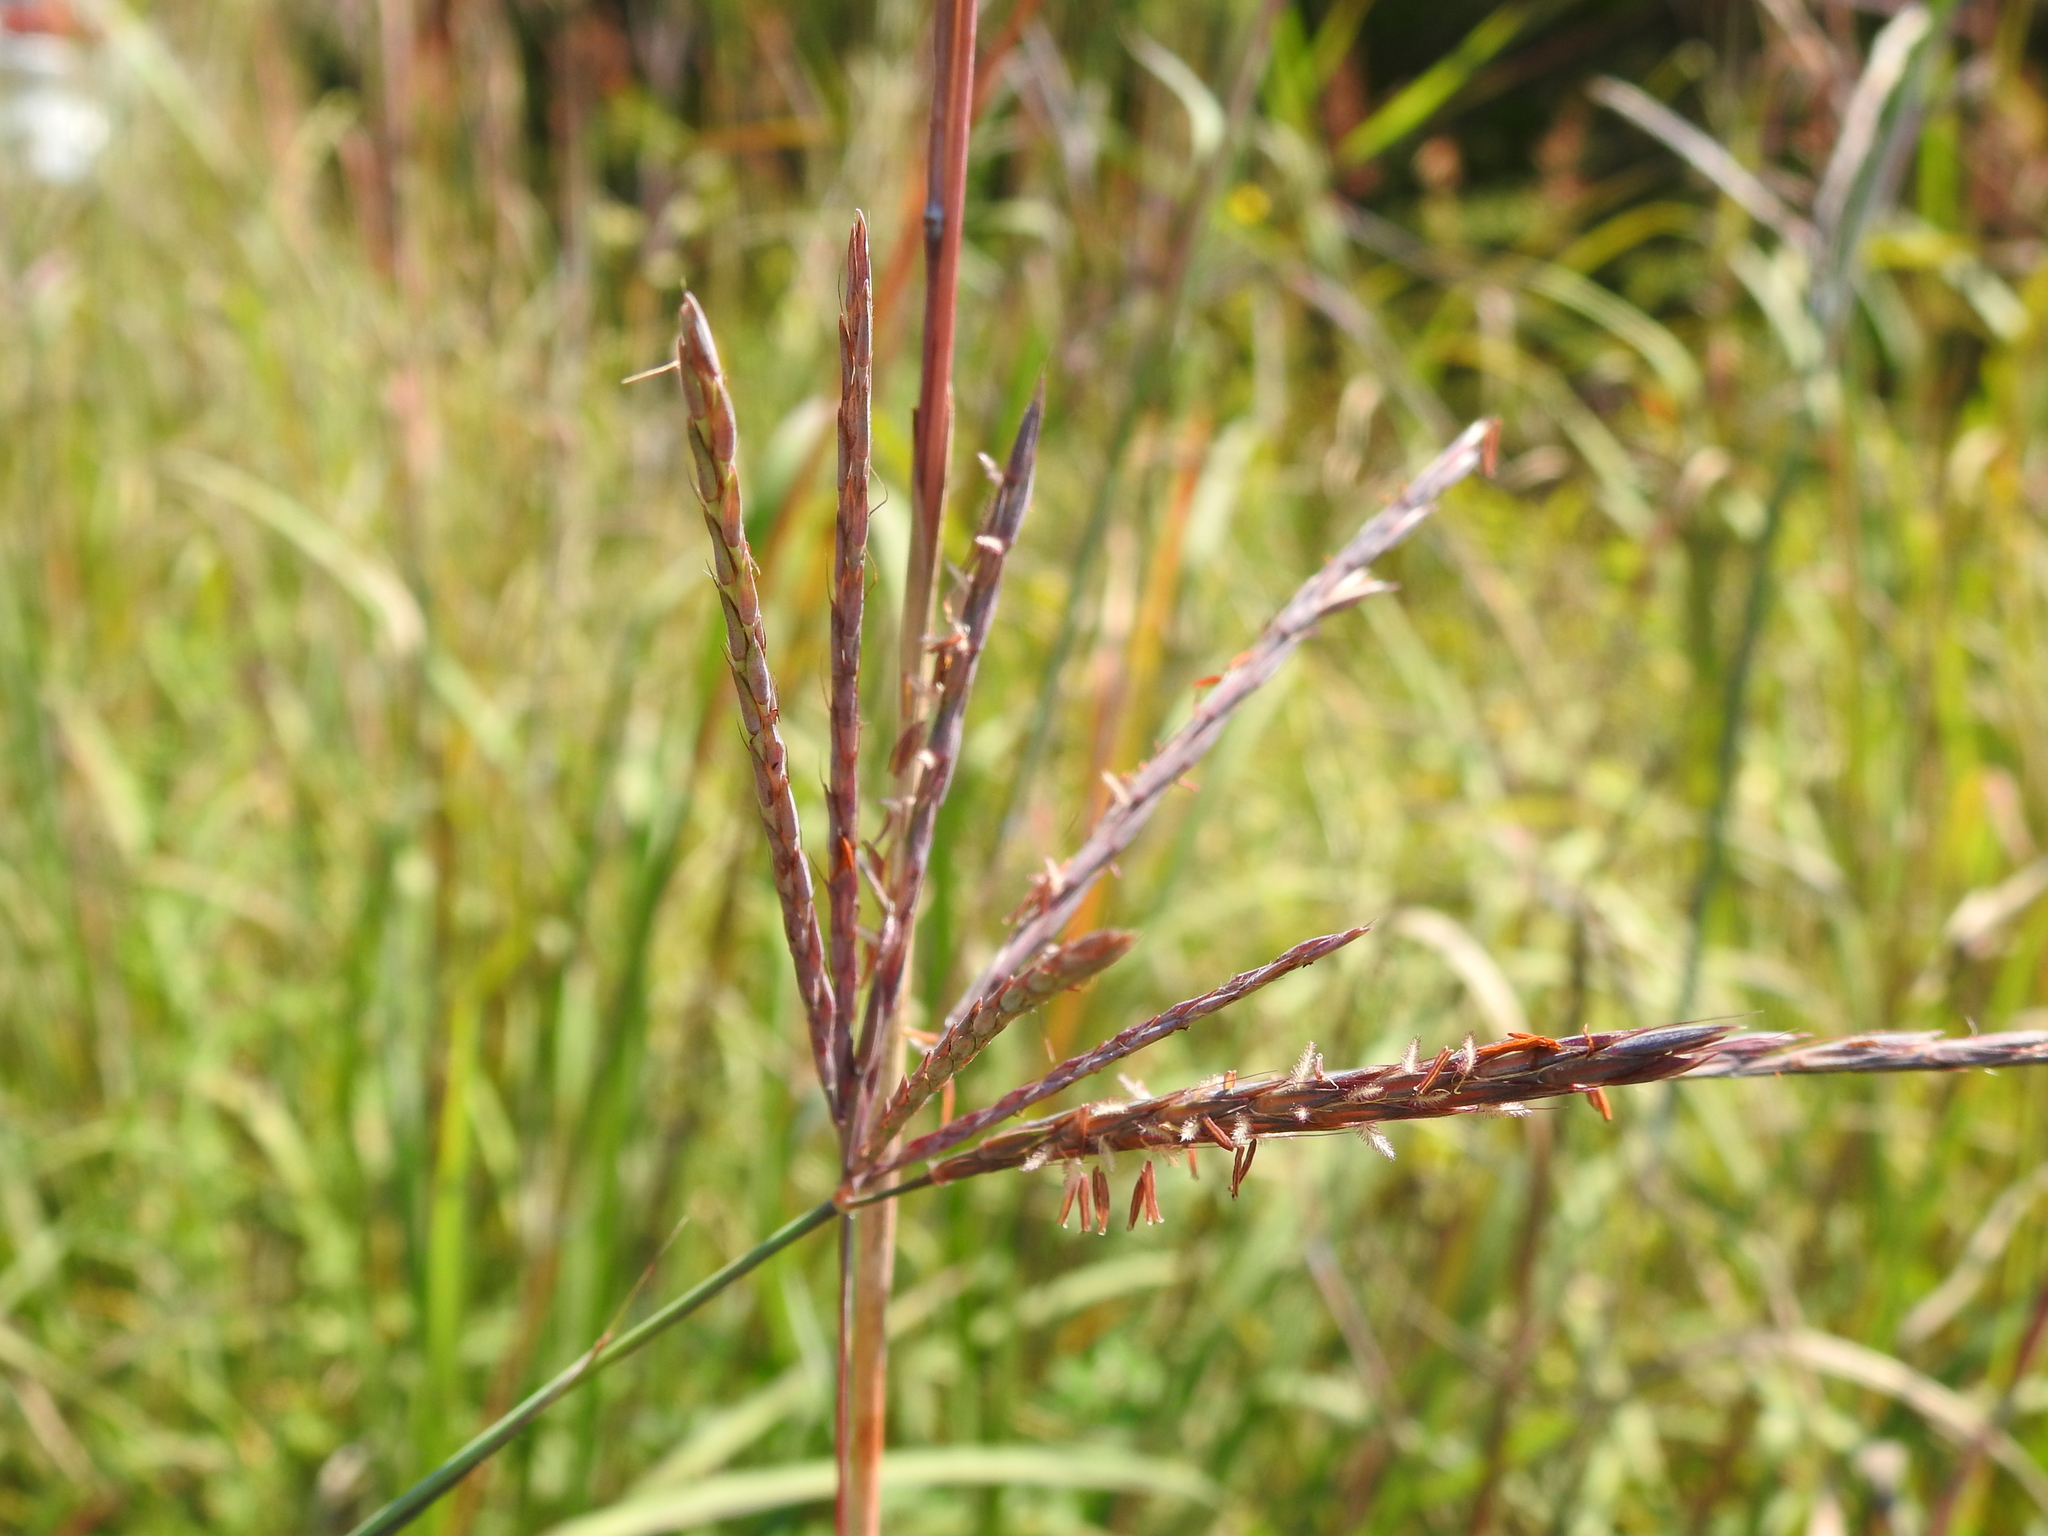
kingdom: Plantae
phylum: Tracheophyta
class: Liliopsida
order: Poales
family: Poaceae
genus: Andropogon
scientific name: Andropogon gerardi
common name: Big bluestem
